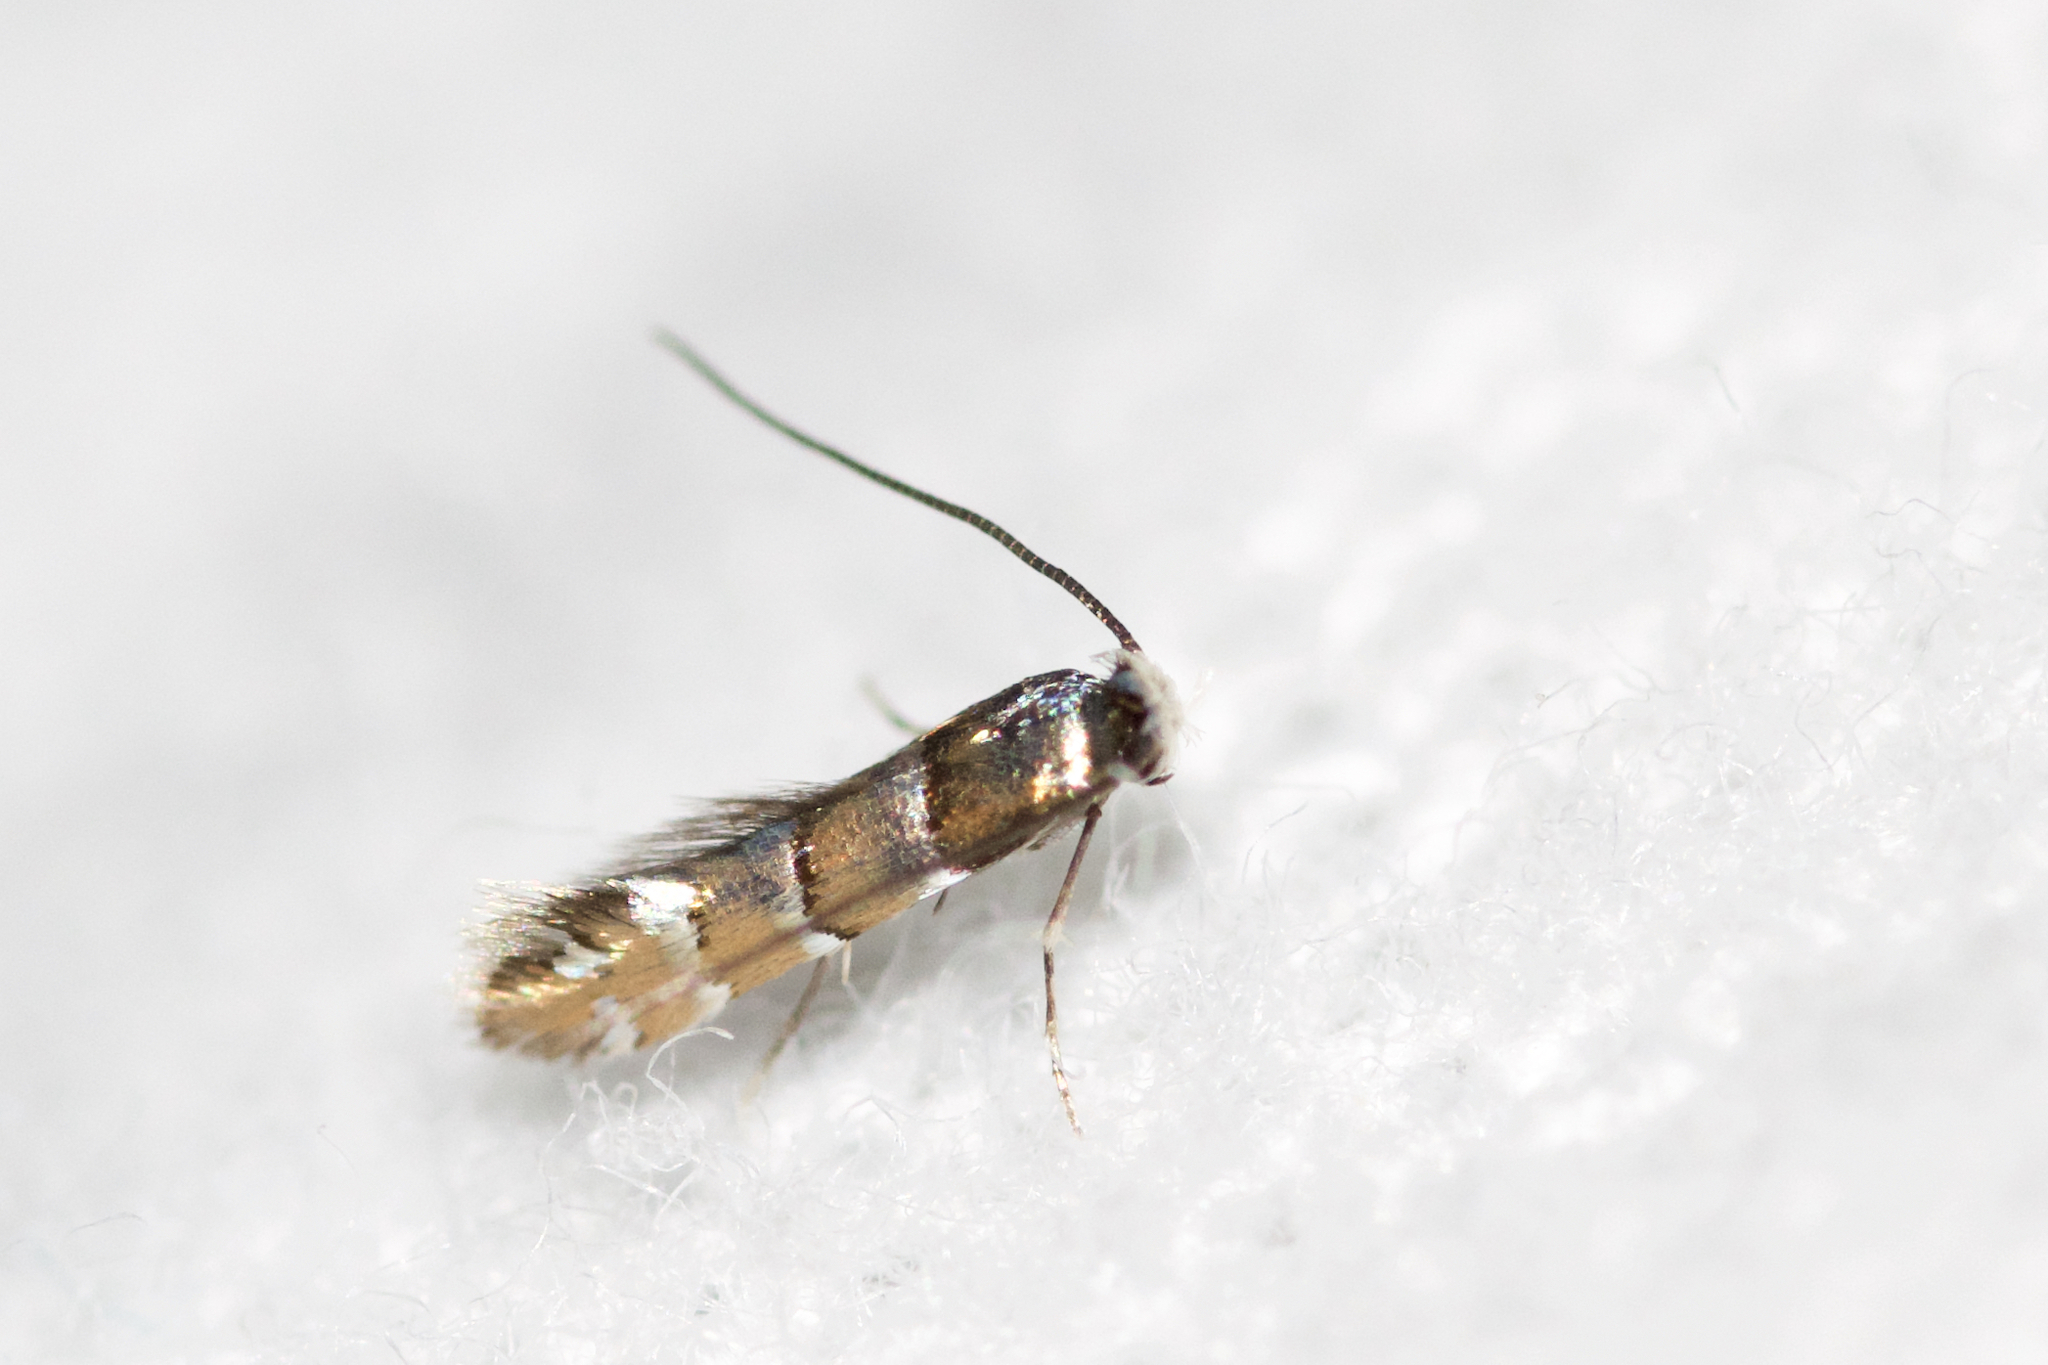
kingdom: Animalia
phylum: Arthropoda
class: Insecta
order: Lepidoptera
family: Gracillariidae
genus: Chrysaster
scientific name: Chrysaster ostensackenella
